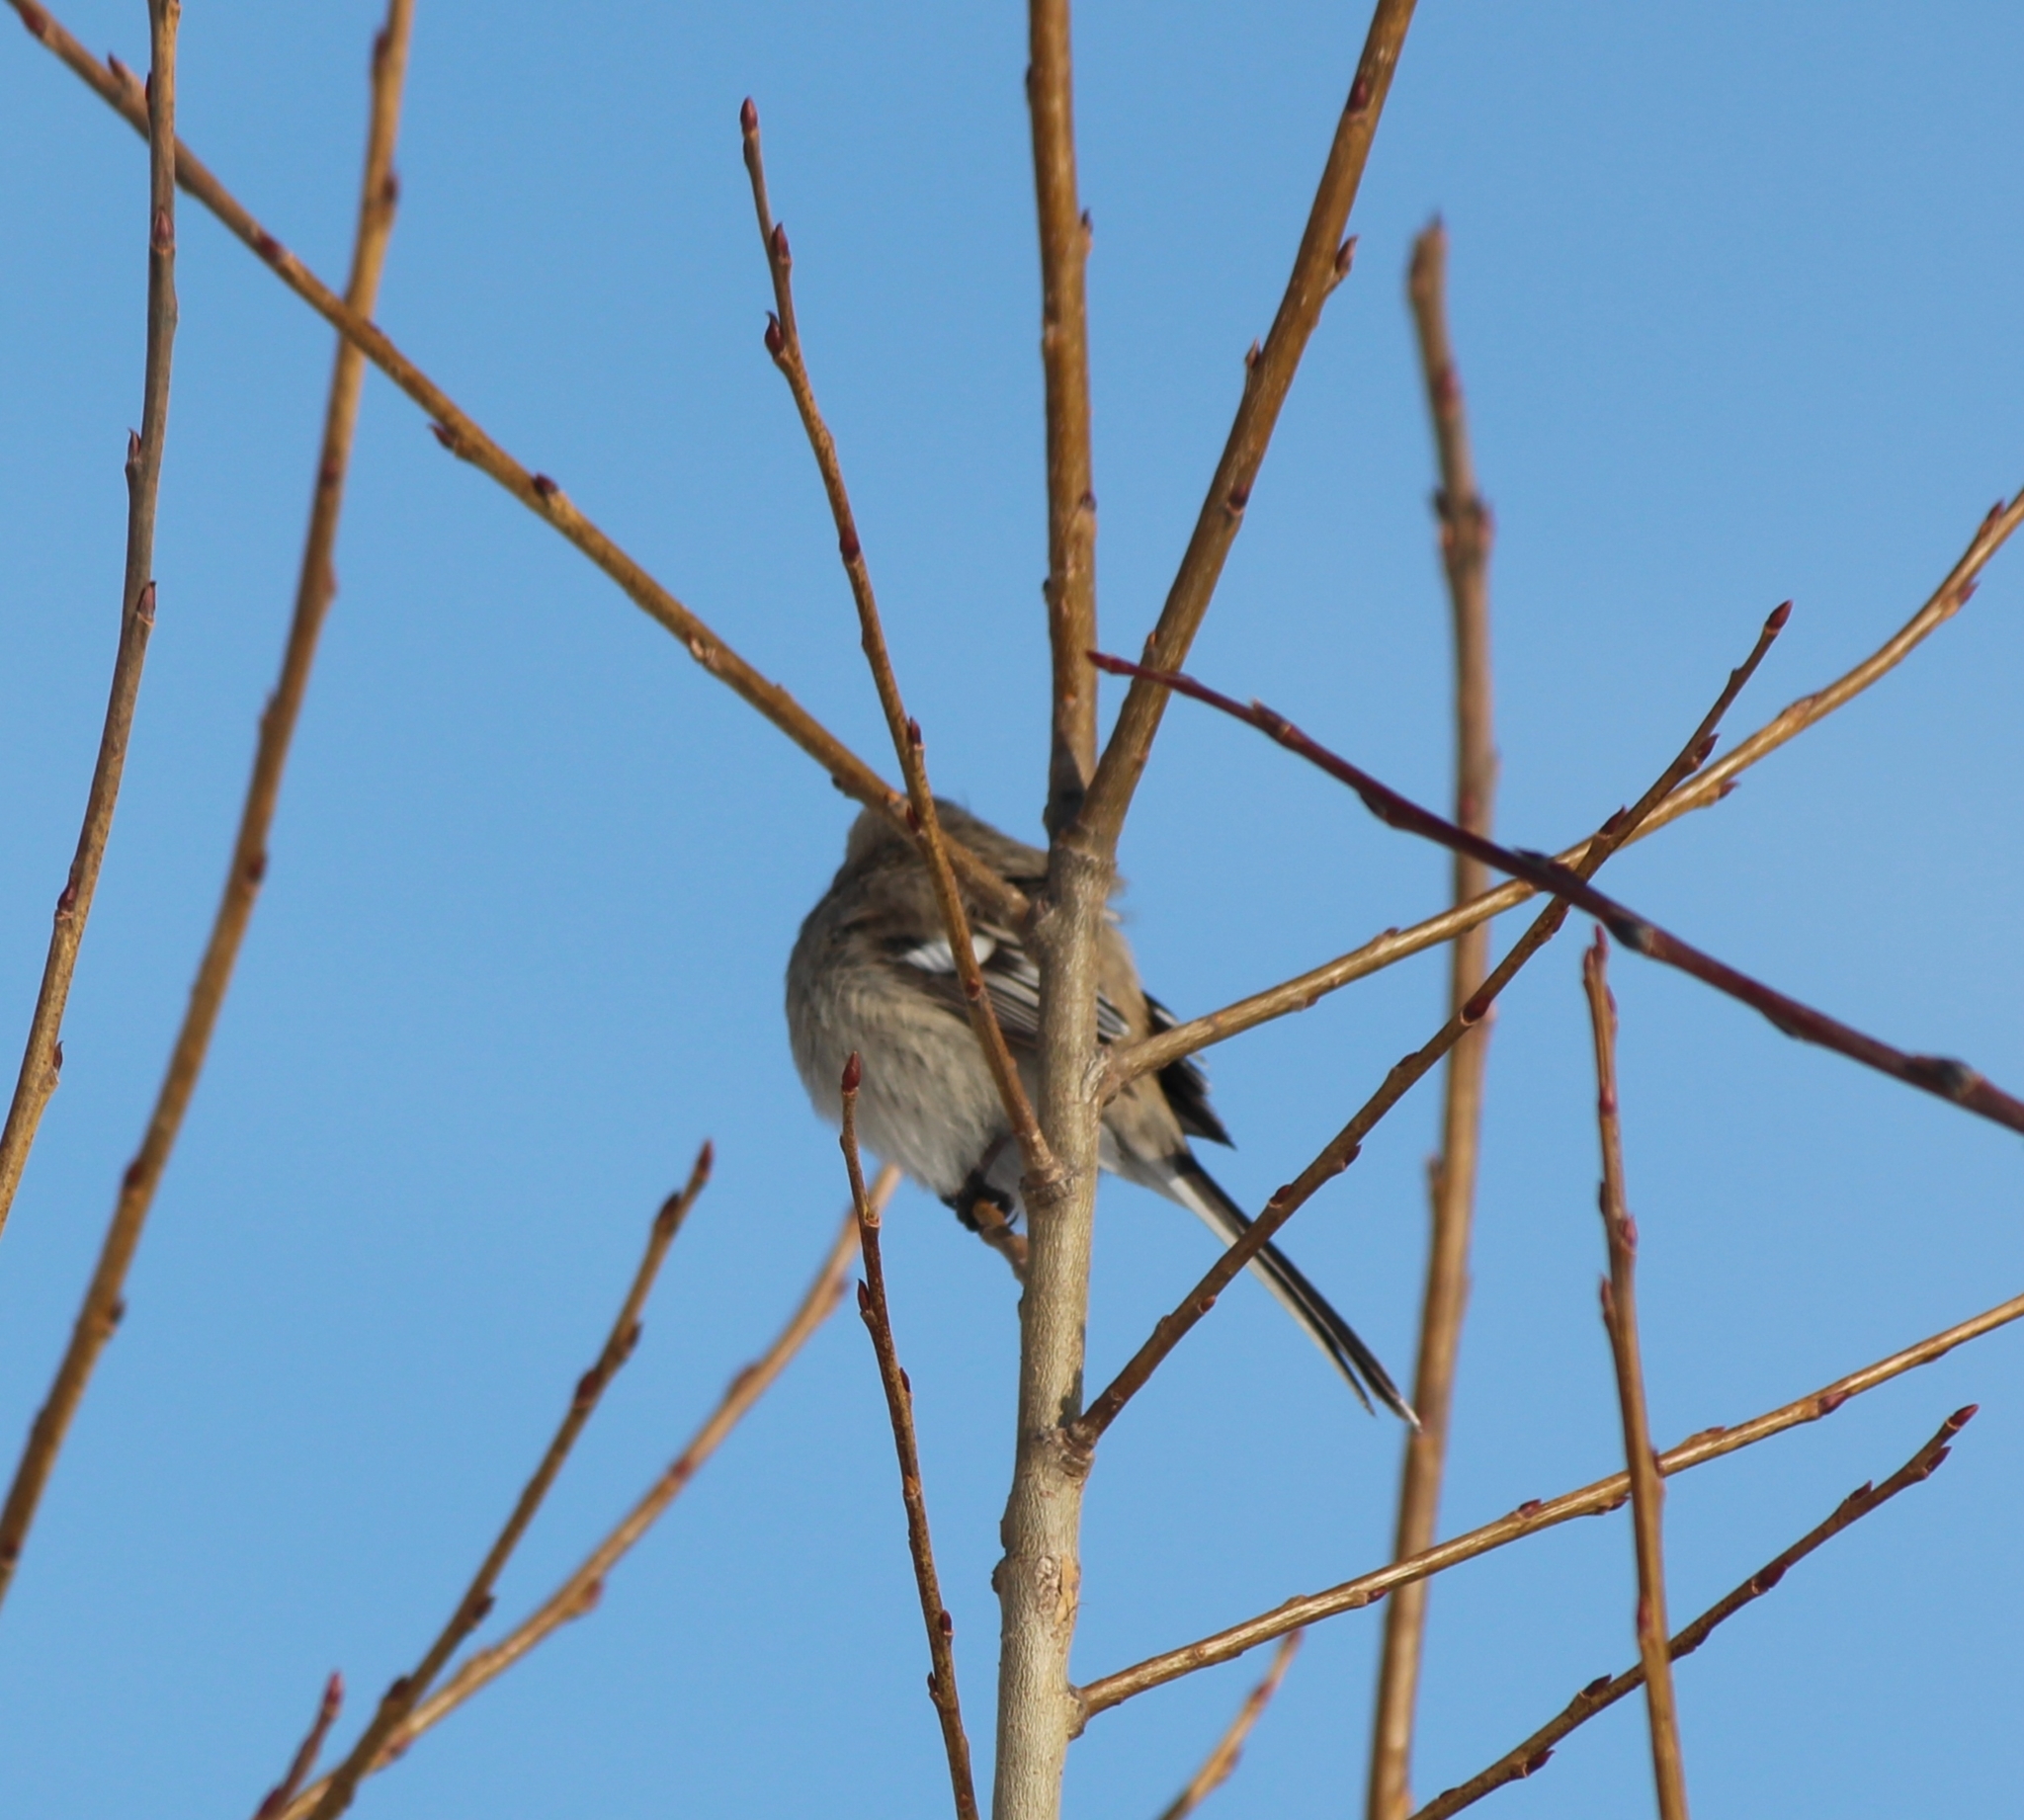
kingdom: Animalia
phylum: Chordata
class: Aves
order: Passeriformes
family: Fringillidae
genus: Carpodacus
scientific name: Carpodacus sibiricus
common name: Long-tailed rosefinch
